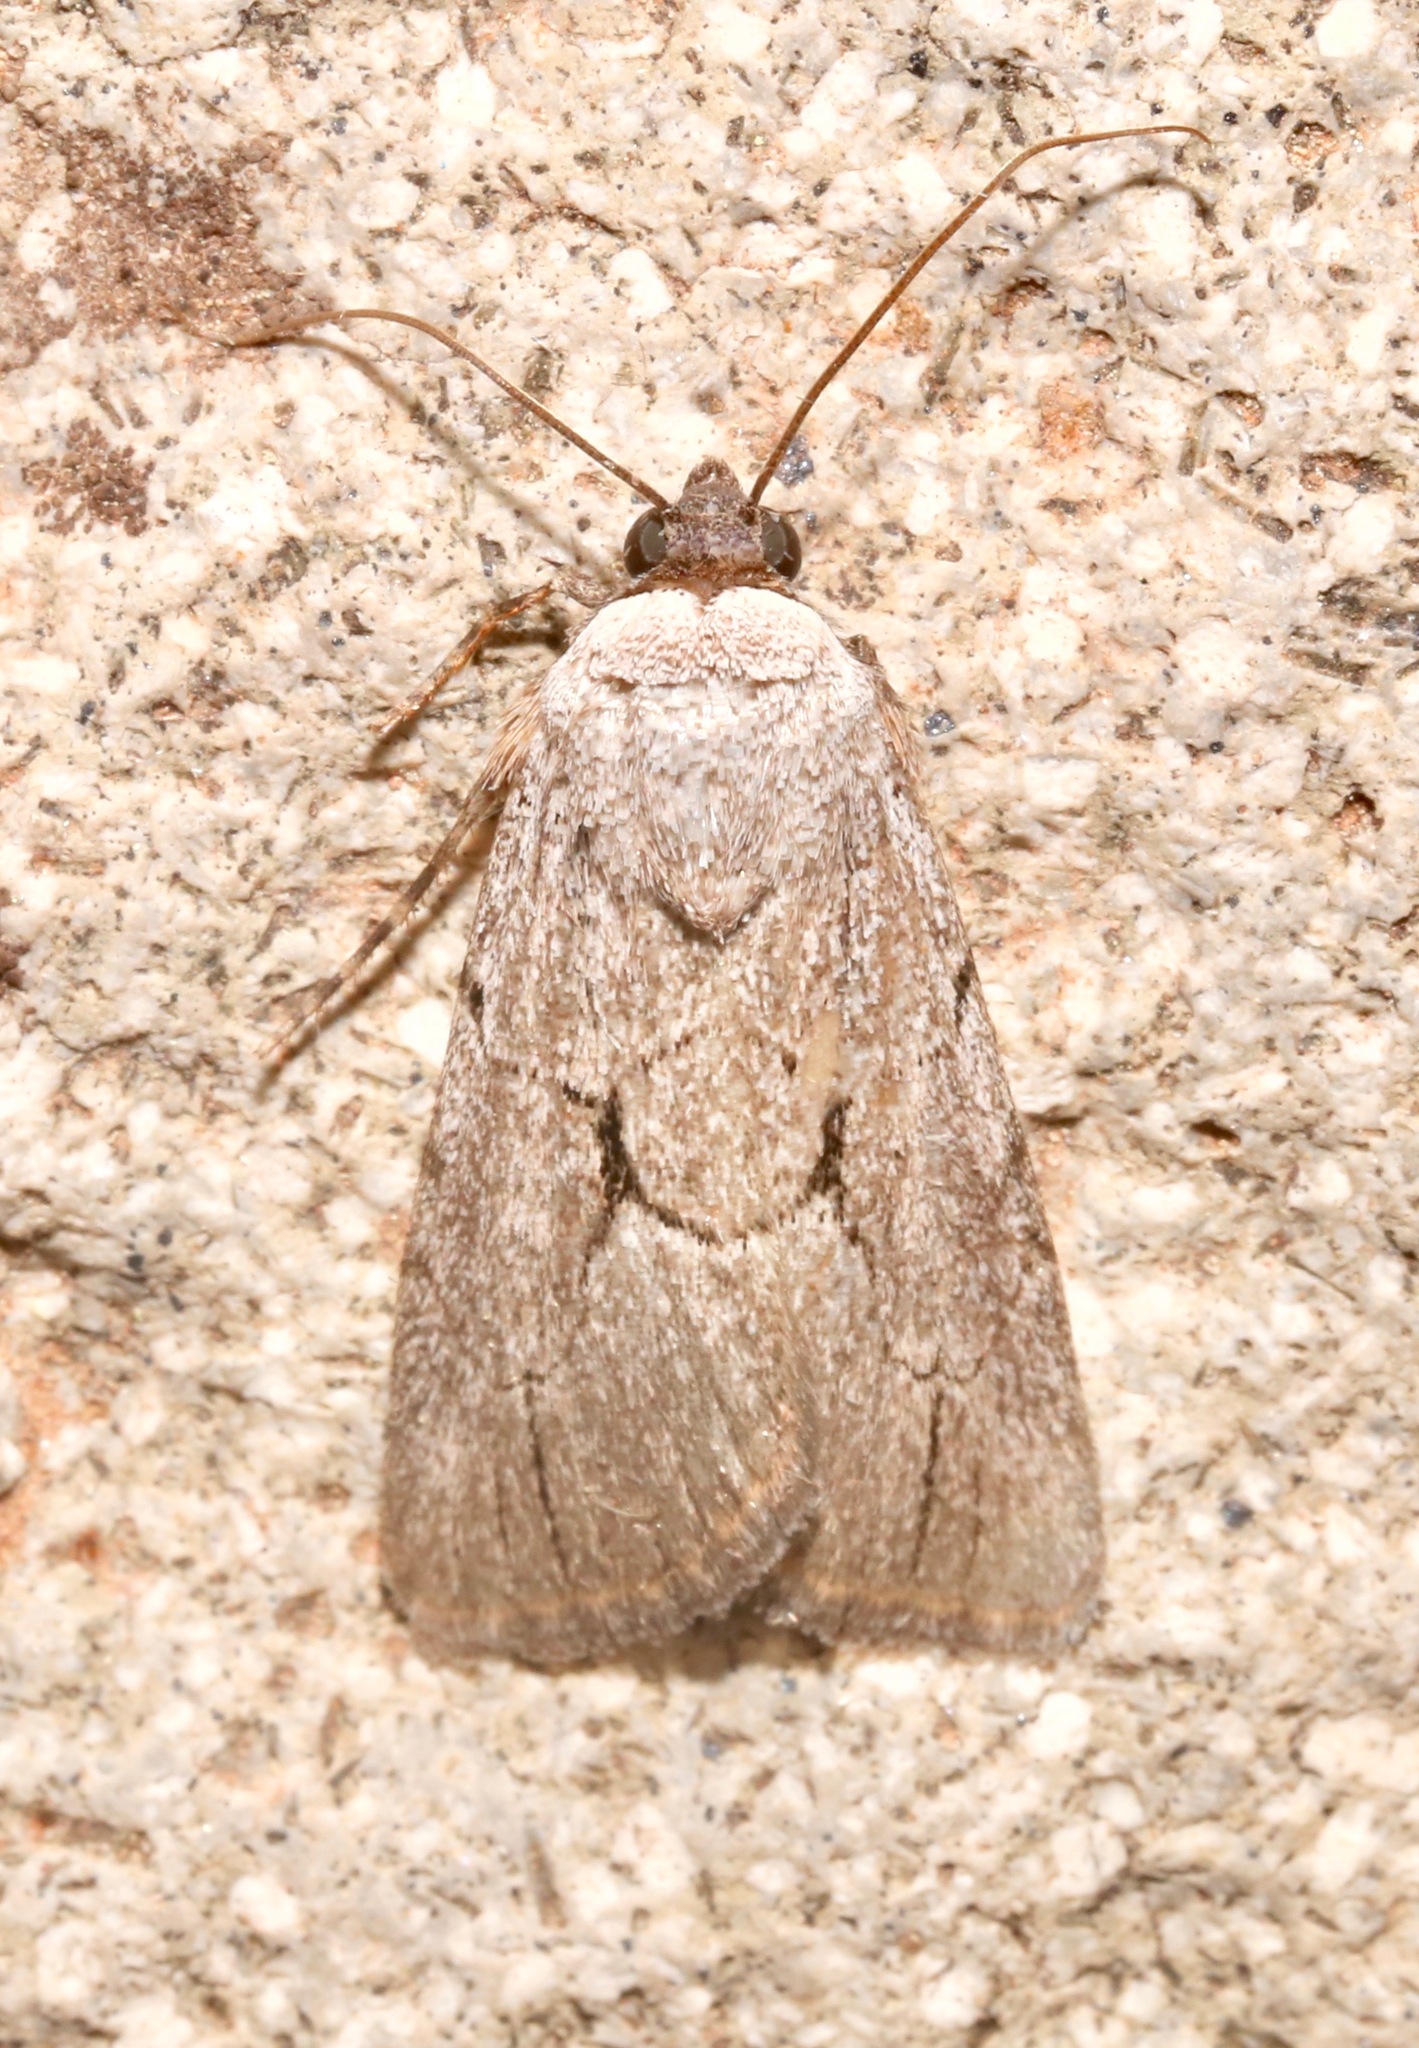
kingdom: Animalia
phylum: Arthropoda
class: Insecta
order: Lepidoptera
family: Noctuidae
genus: Sympistis
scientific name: Sympistis figurata
